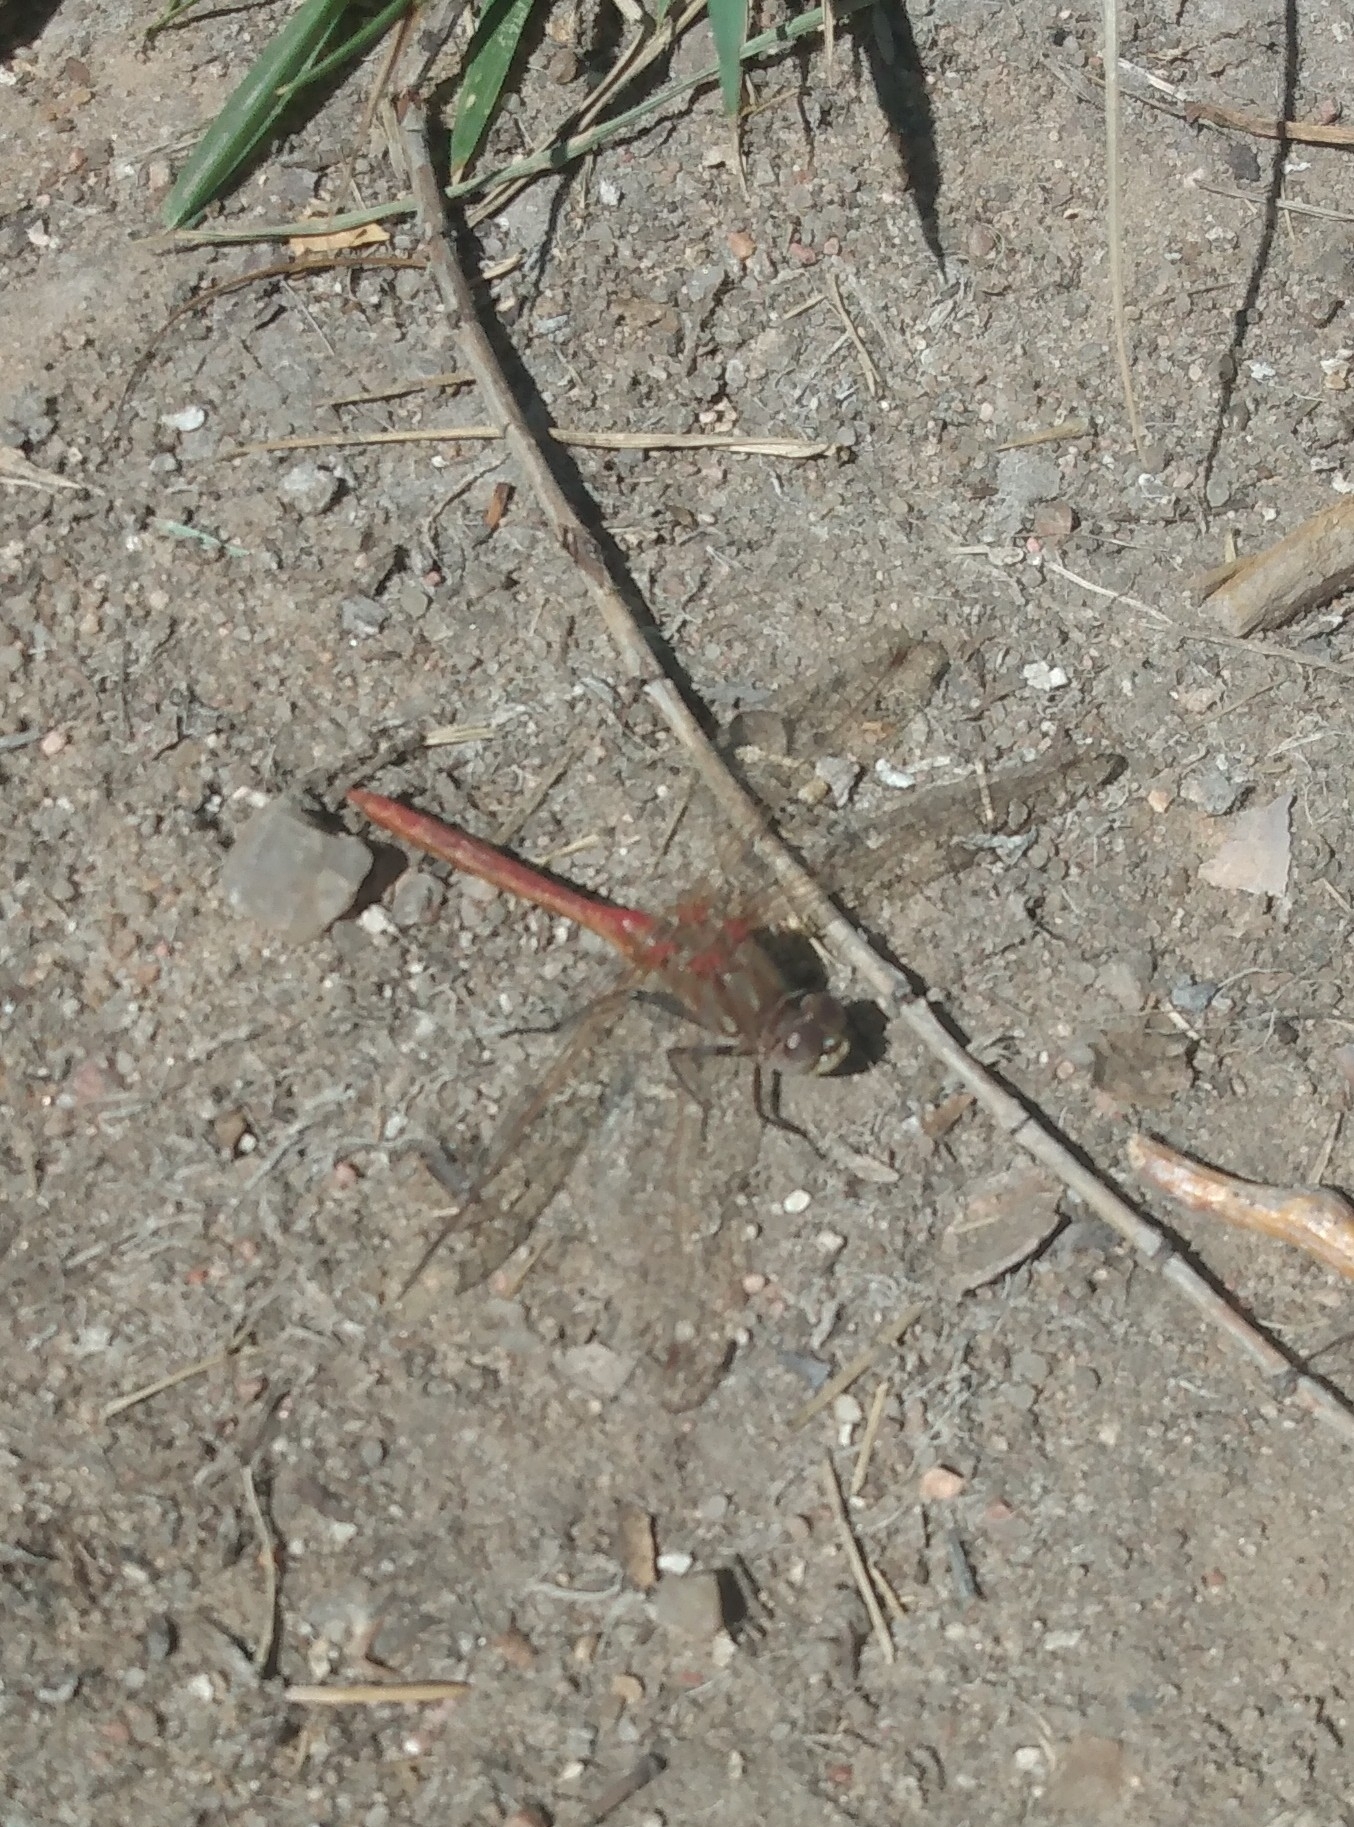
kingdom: Animalia
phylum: Arthropoda
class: Insecta
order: Odonata
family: Libellulidae
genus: Sympetrum
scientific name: Sympetrum pallipes
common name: Striped meadowhawk
